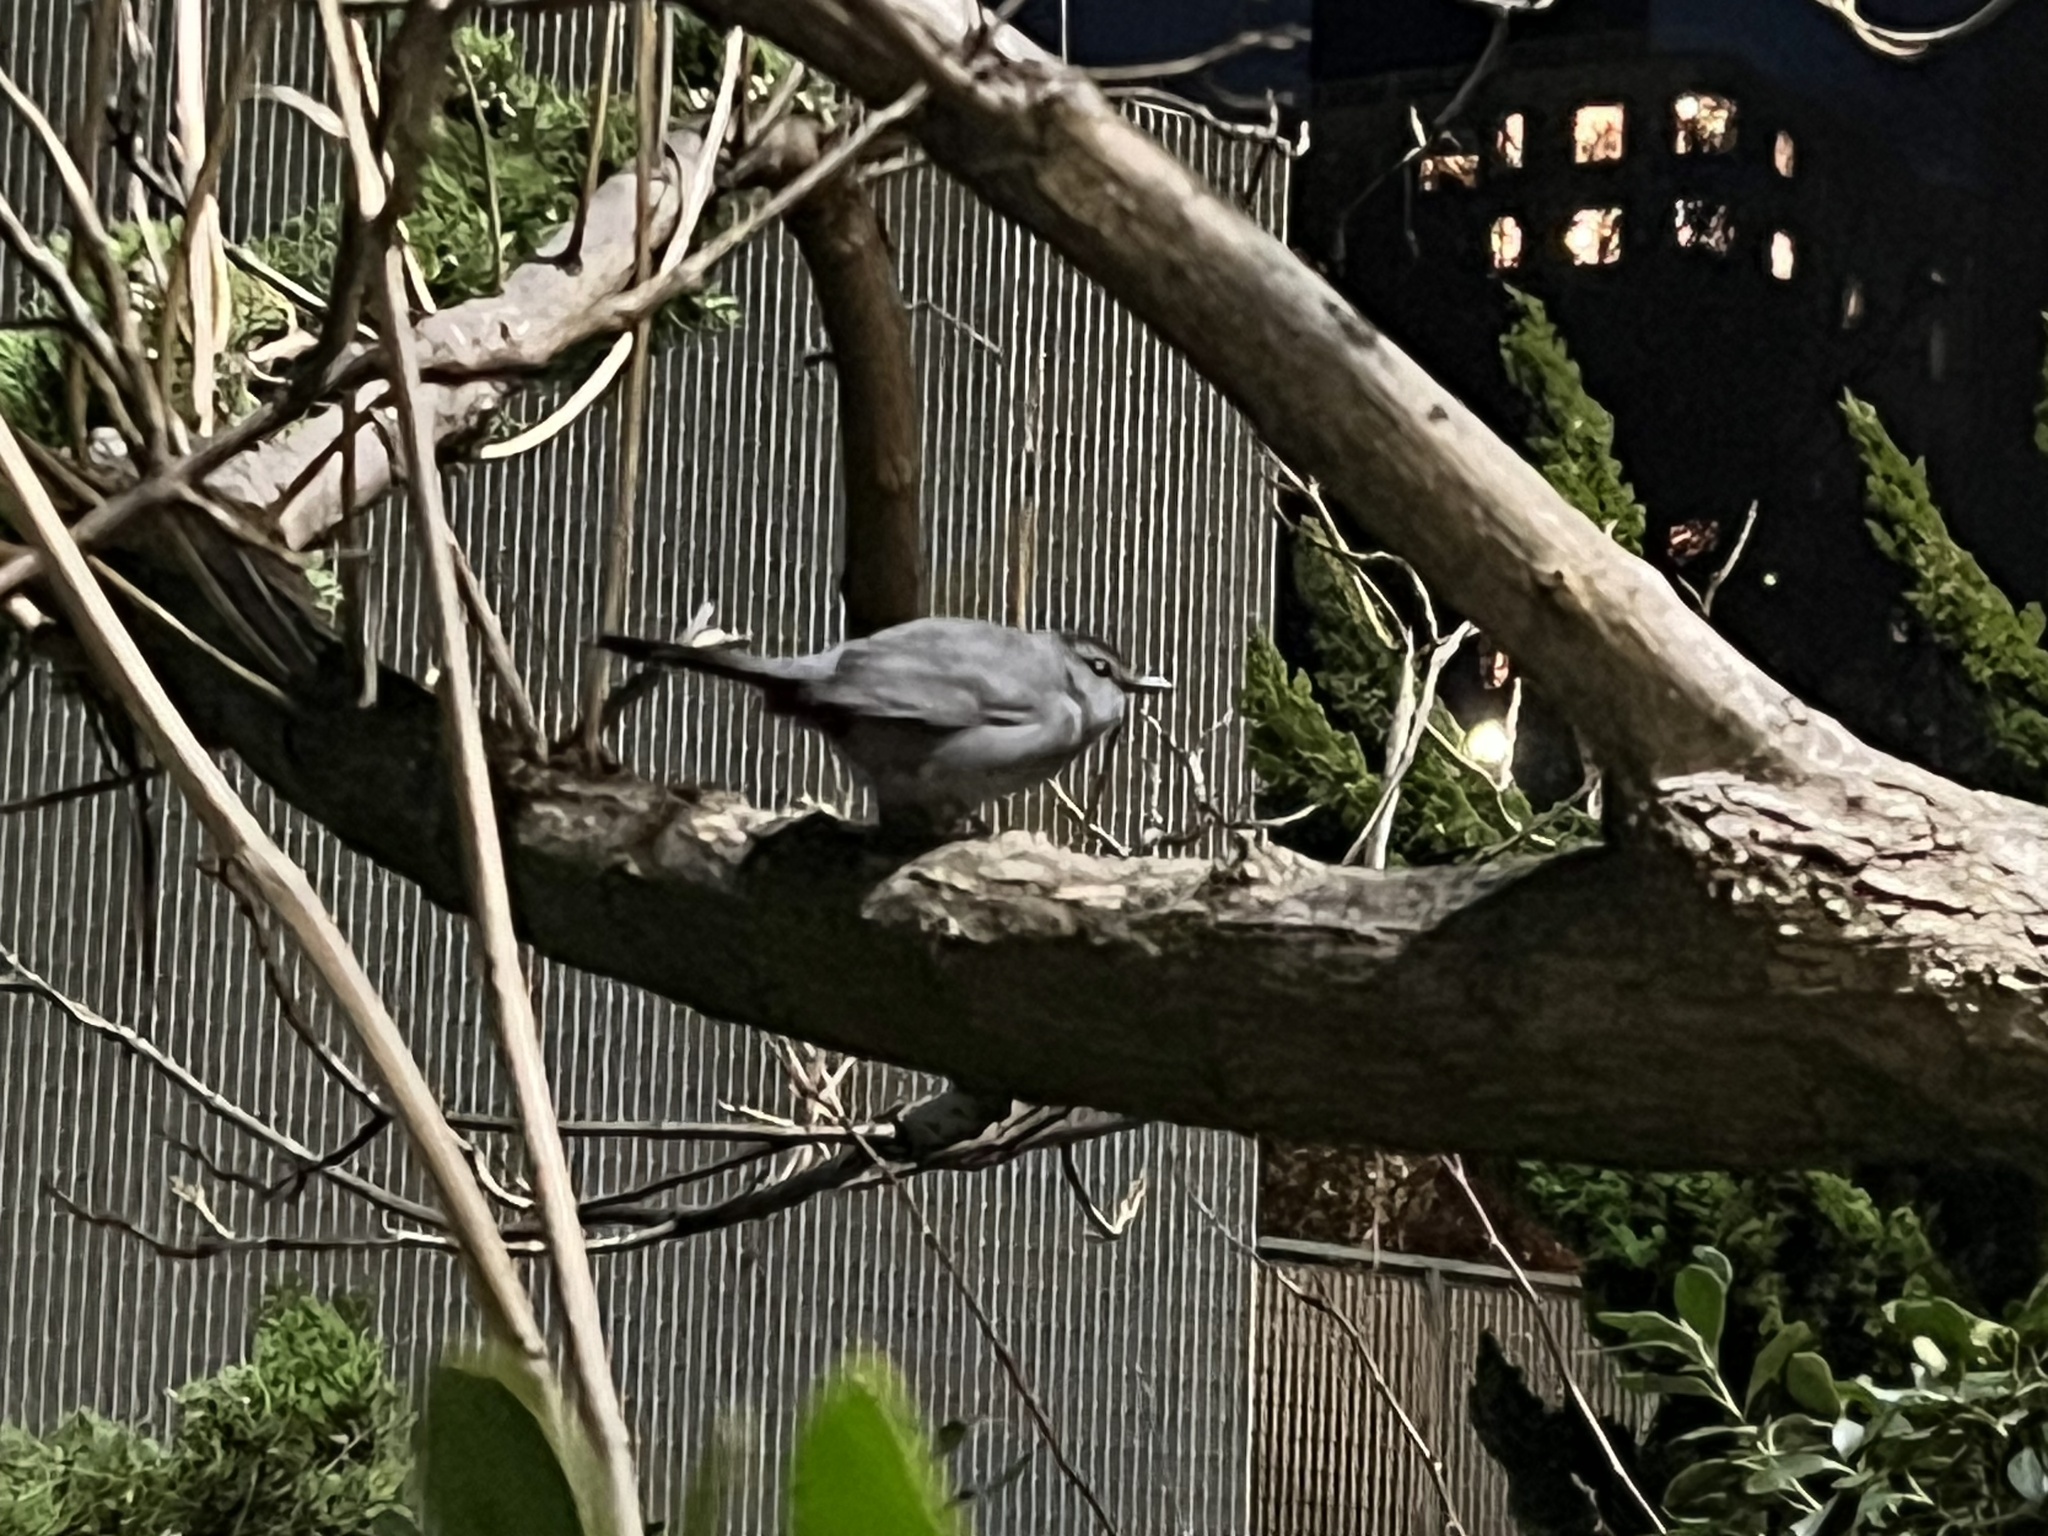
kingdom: Animalia
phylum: Chordata
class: Aves
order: Passeriformes
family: Mimidae
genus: Dumetella
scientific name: Dumetella carolinensis
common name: Gray catbird
